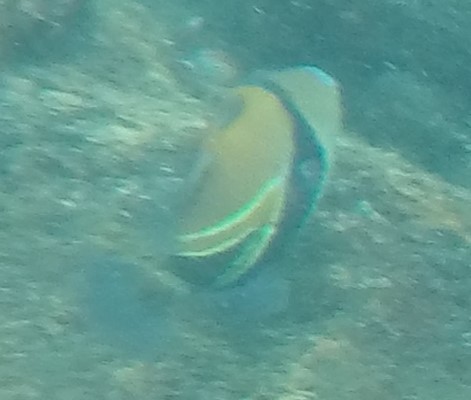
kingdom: Animalia
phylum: Chordata
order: Tetraodontiformes
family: Balistidae
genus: Rhinecanthus
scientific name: Rhinecanthus rectangulus
